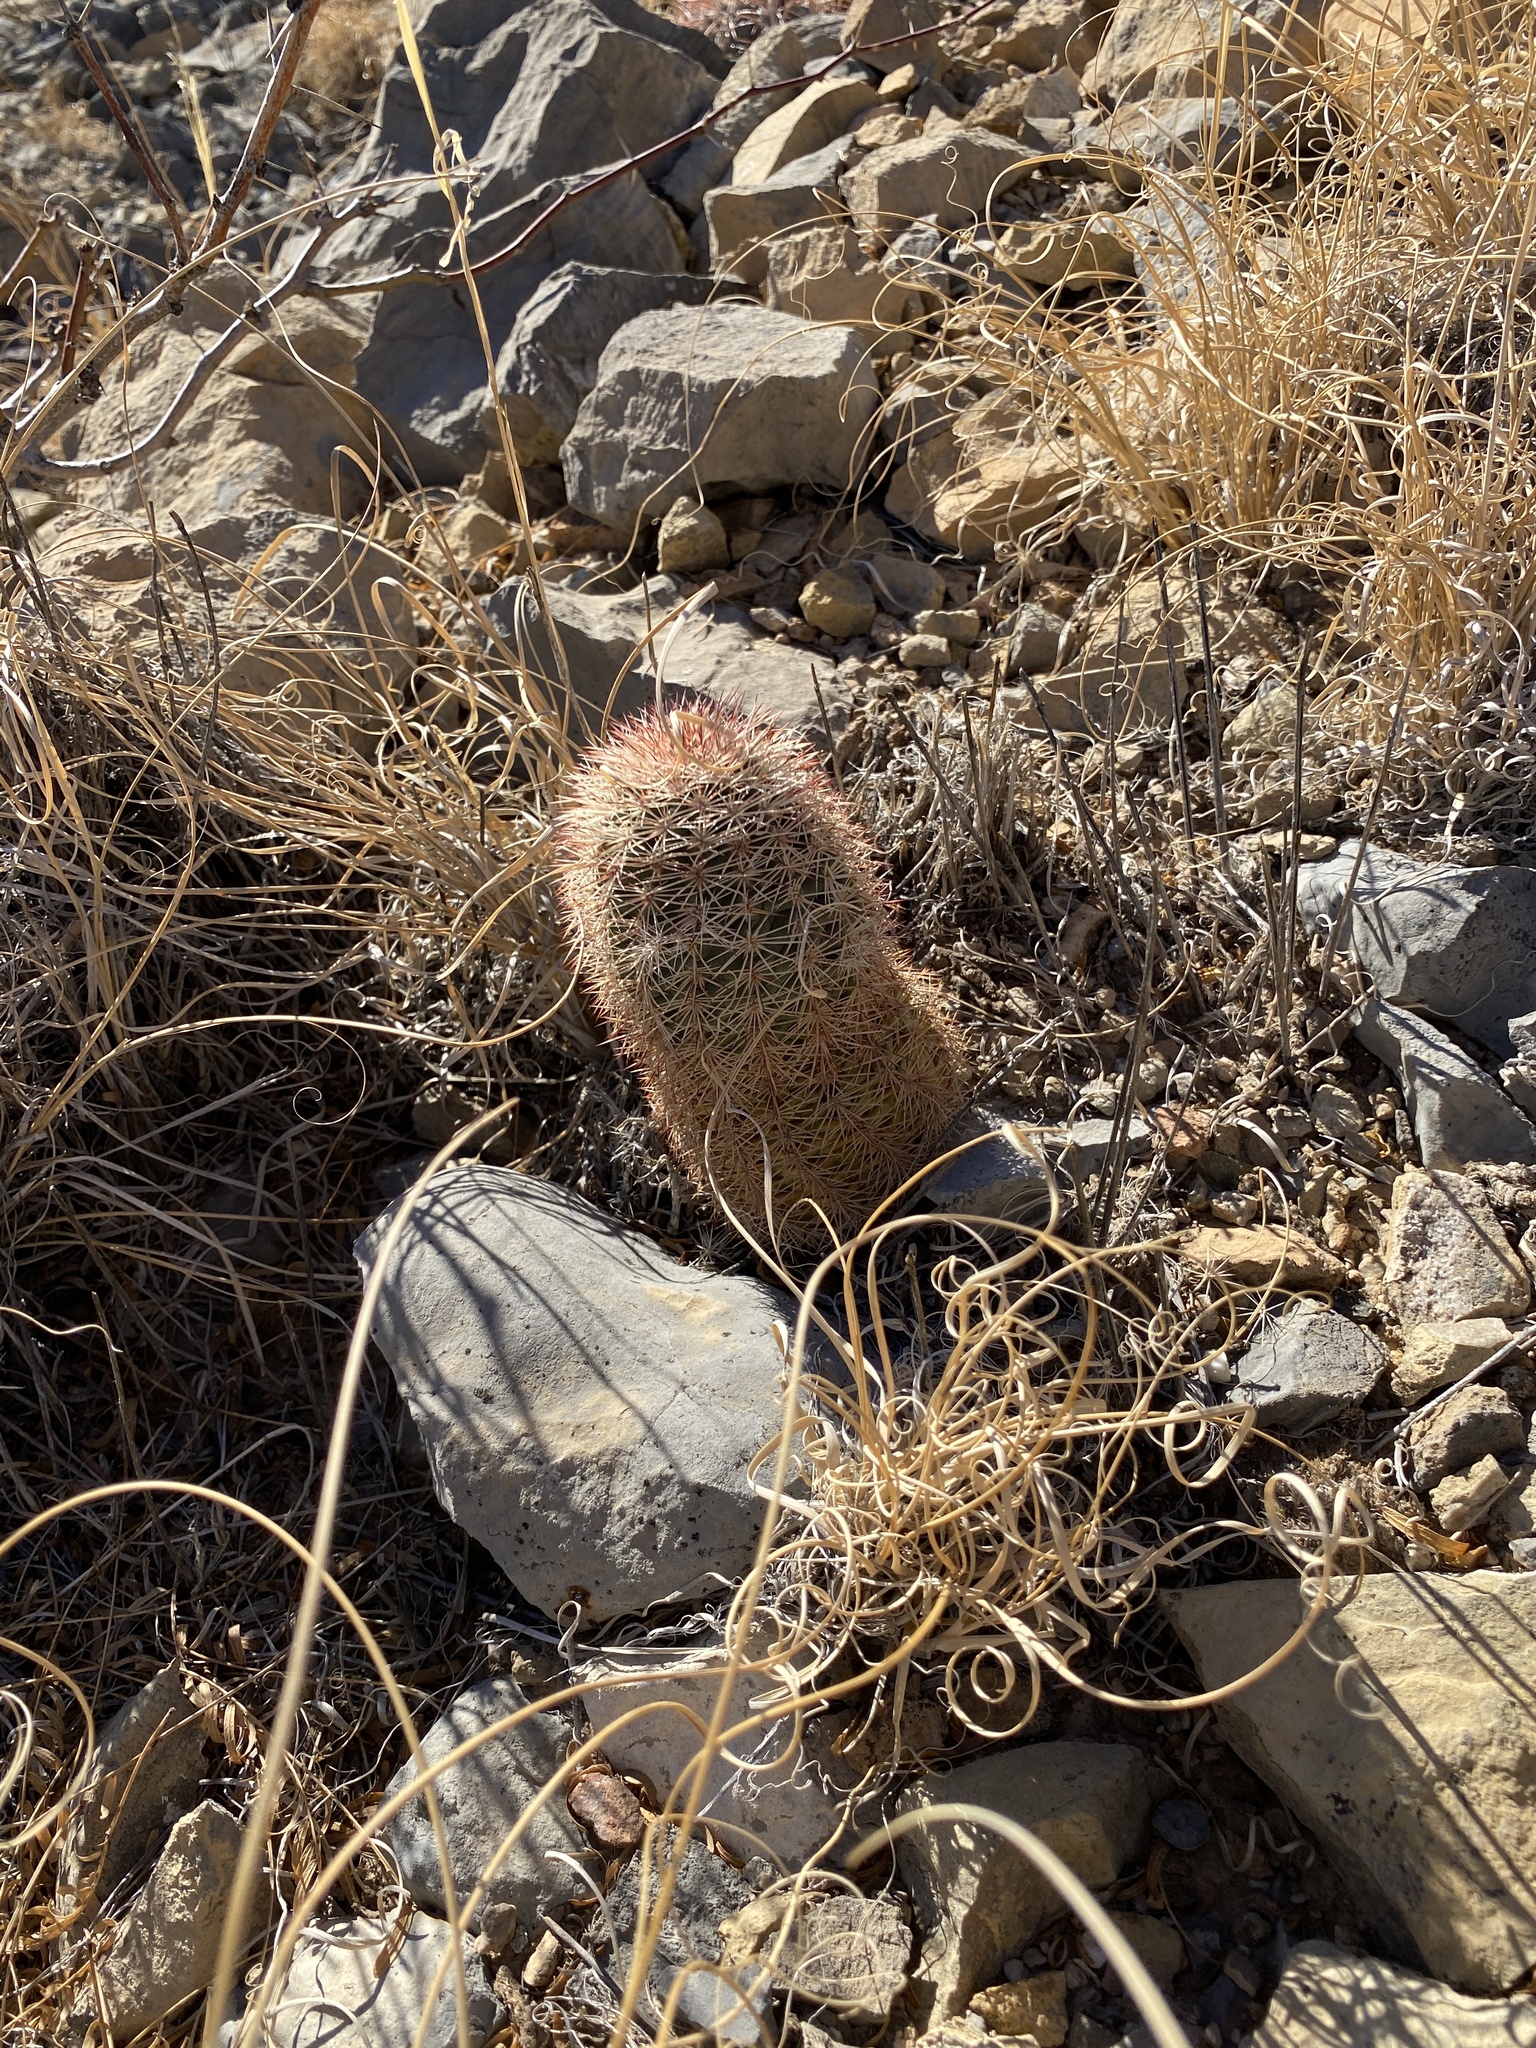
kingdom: Plantae
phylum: Tracheophyta
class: Magnoliopsida
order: Caryophyllales
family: Cactaceae
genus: Echinocereus
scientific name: Echinocereus dasyacanthus
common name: Spiny hedgehog cactus
